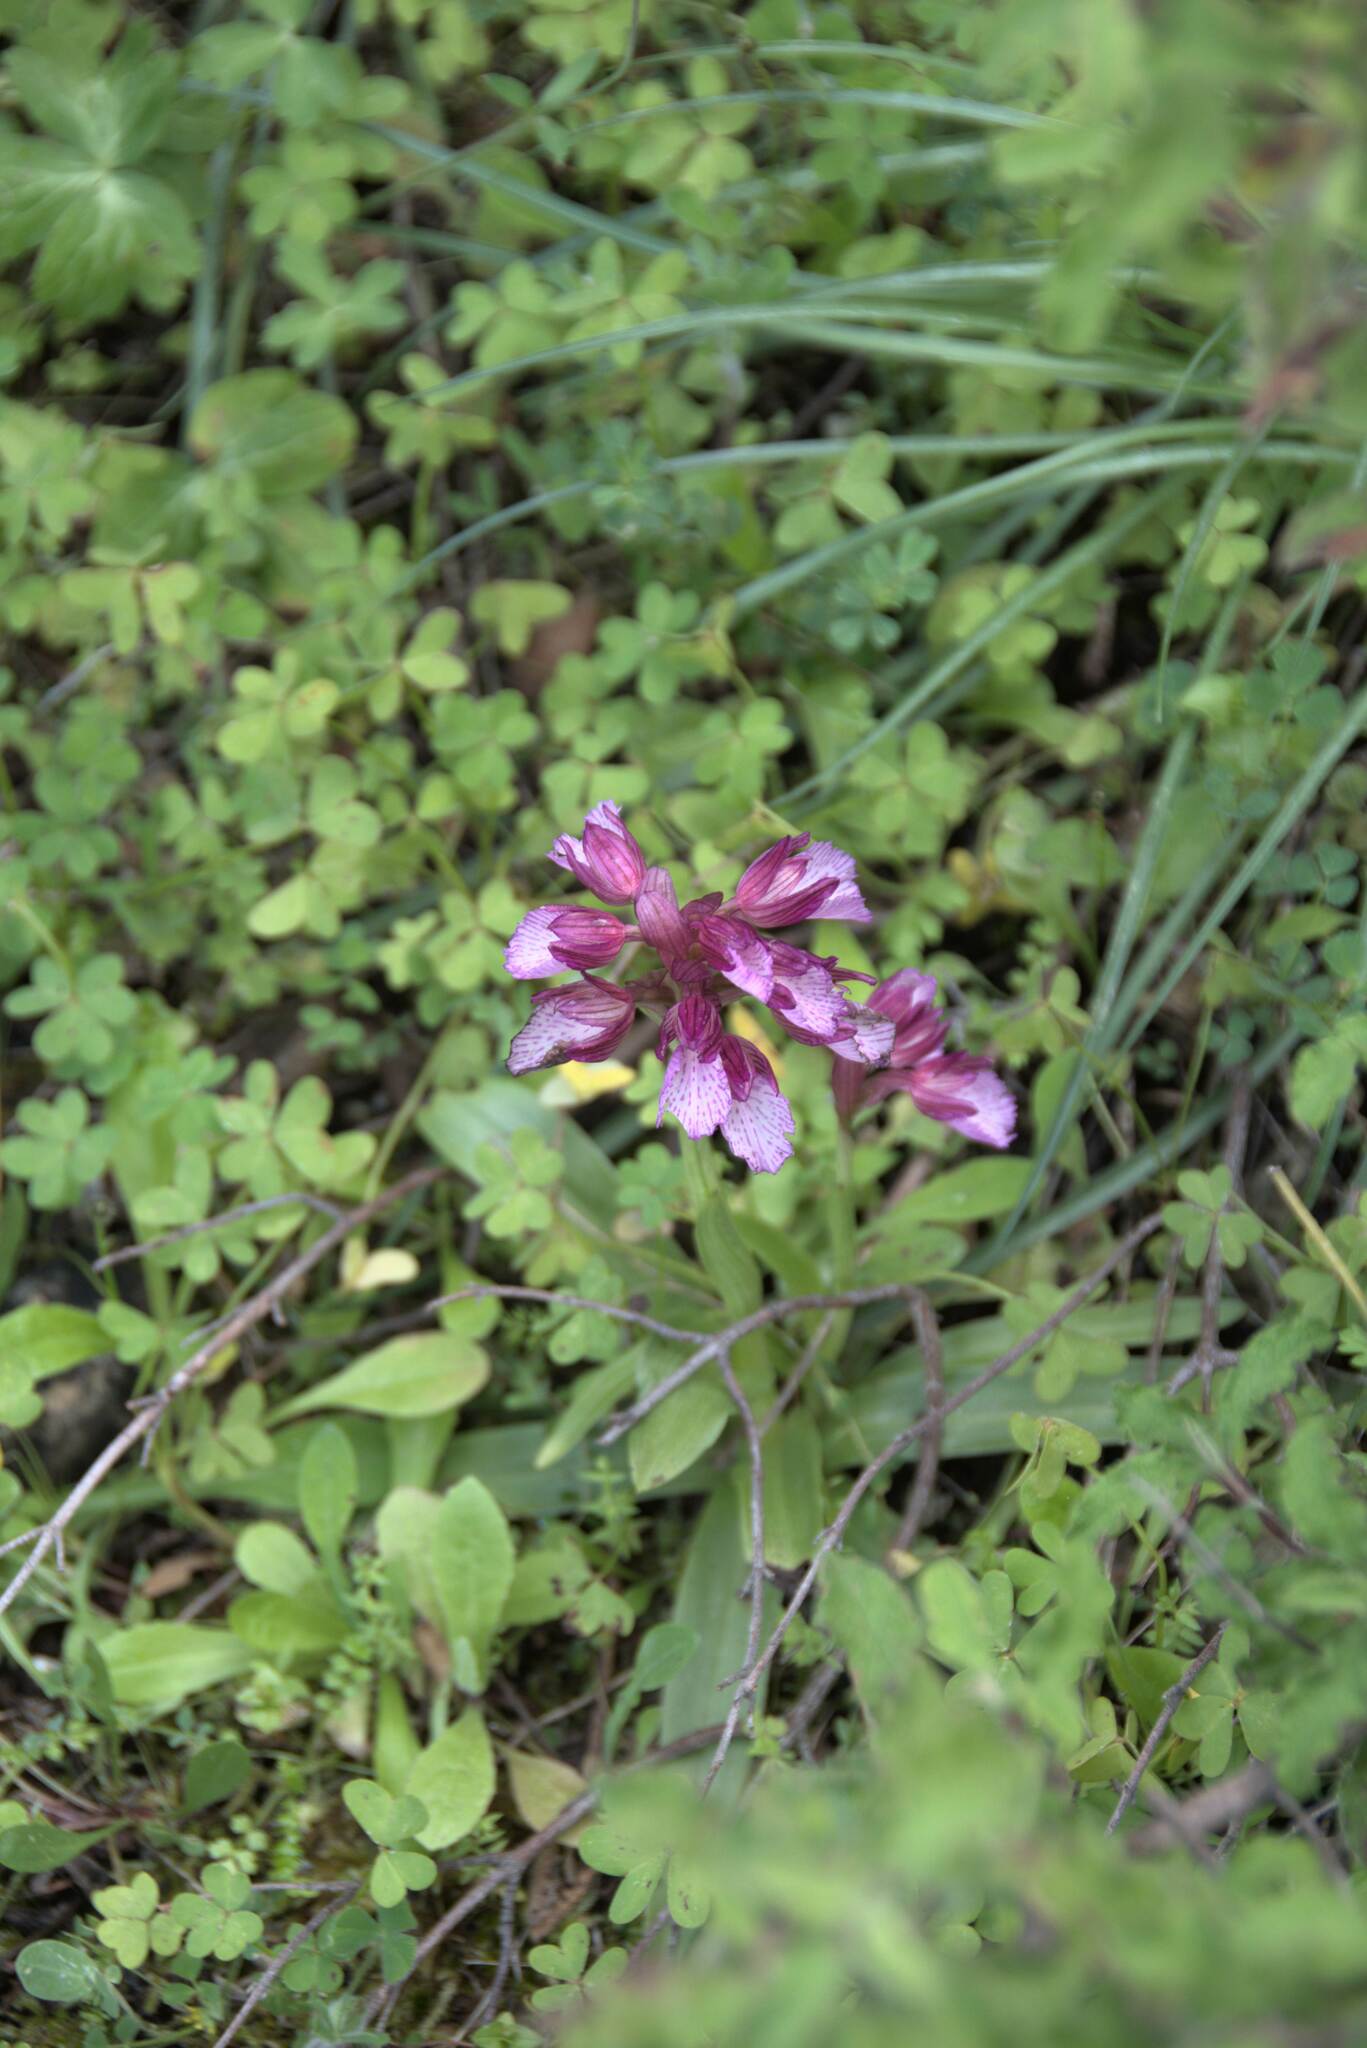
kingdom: Plantae
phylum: Tracheophyta
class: Liliopsida
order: Asparagales
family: Orchidaceae
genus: Anacamptis
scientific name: Anacamptis papilionacea
